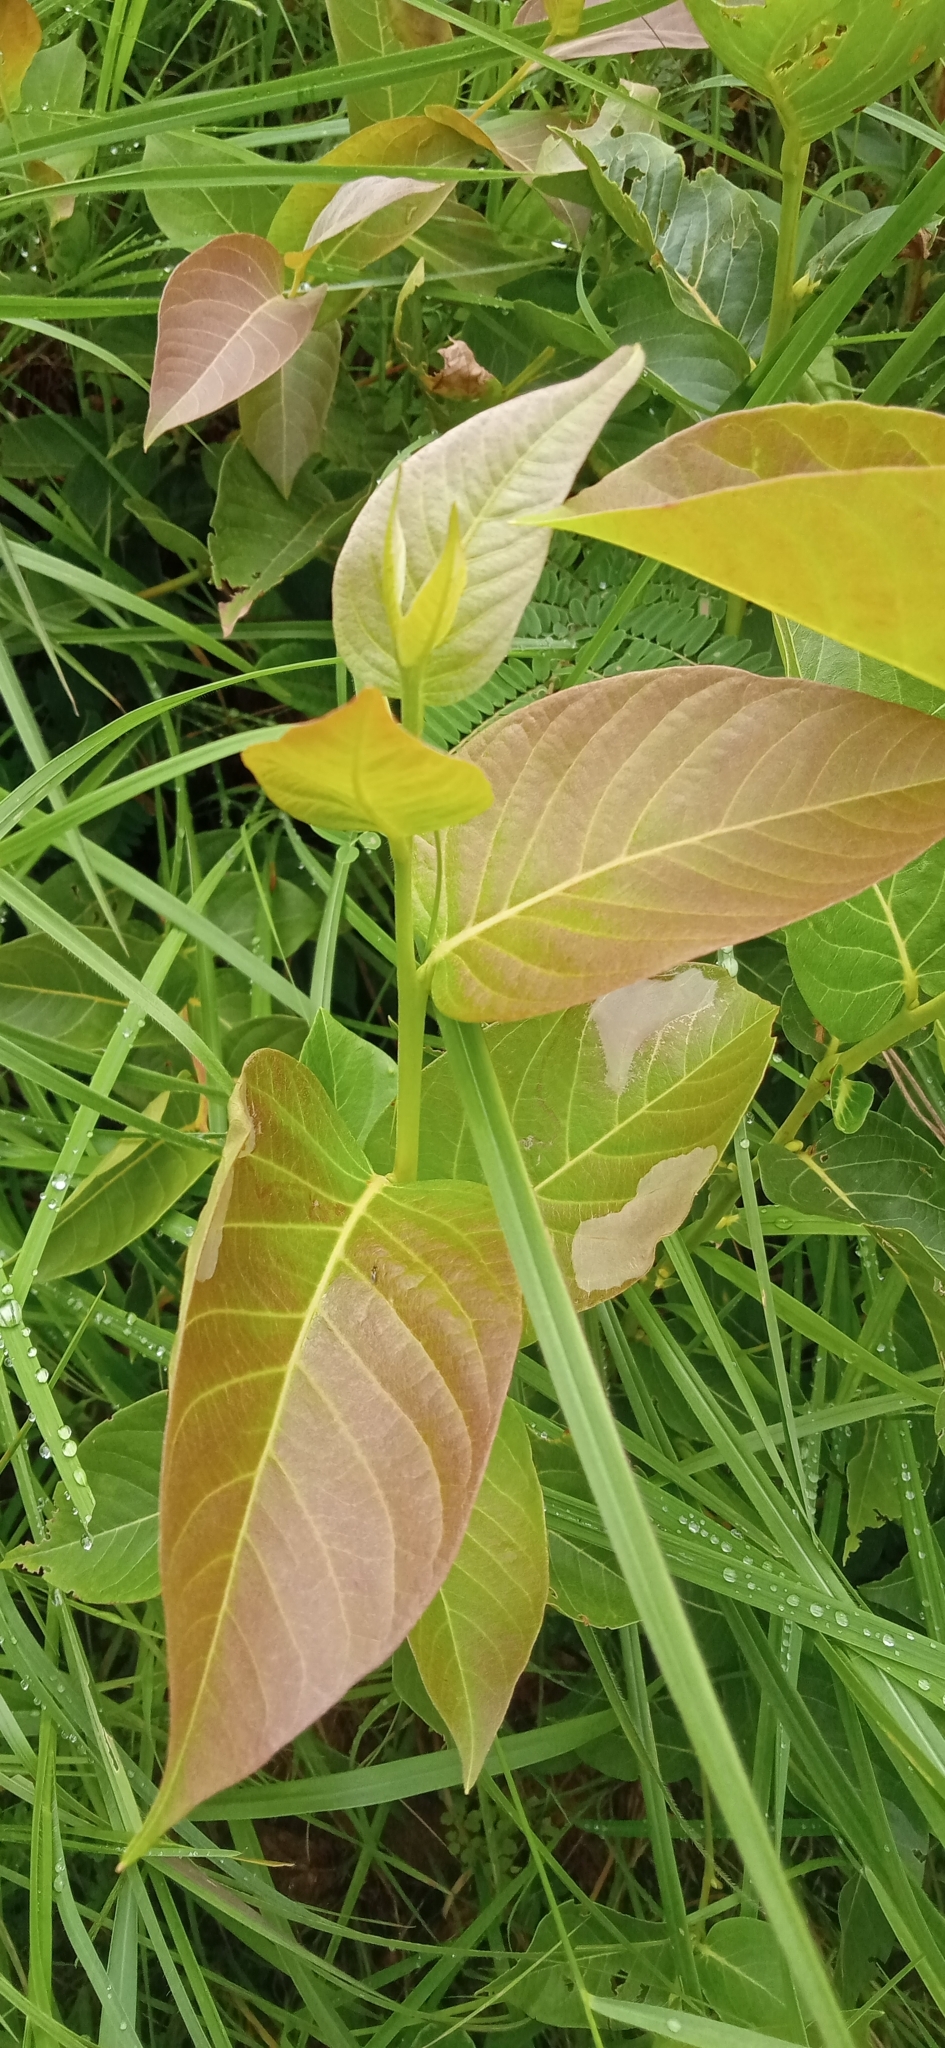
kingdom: Plantae
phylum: Tracheophyta
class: Magnoliopsida
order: Ericales
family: Ericaceae
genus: Lyonia
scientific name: Lyonia ovalifolia
